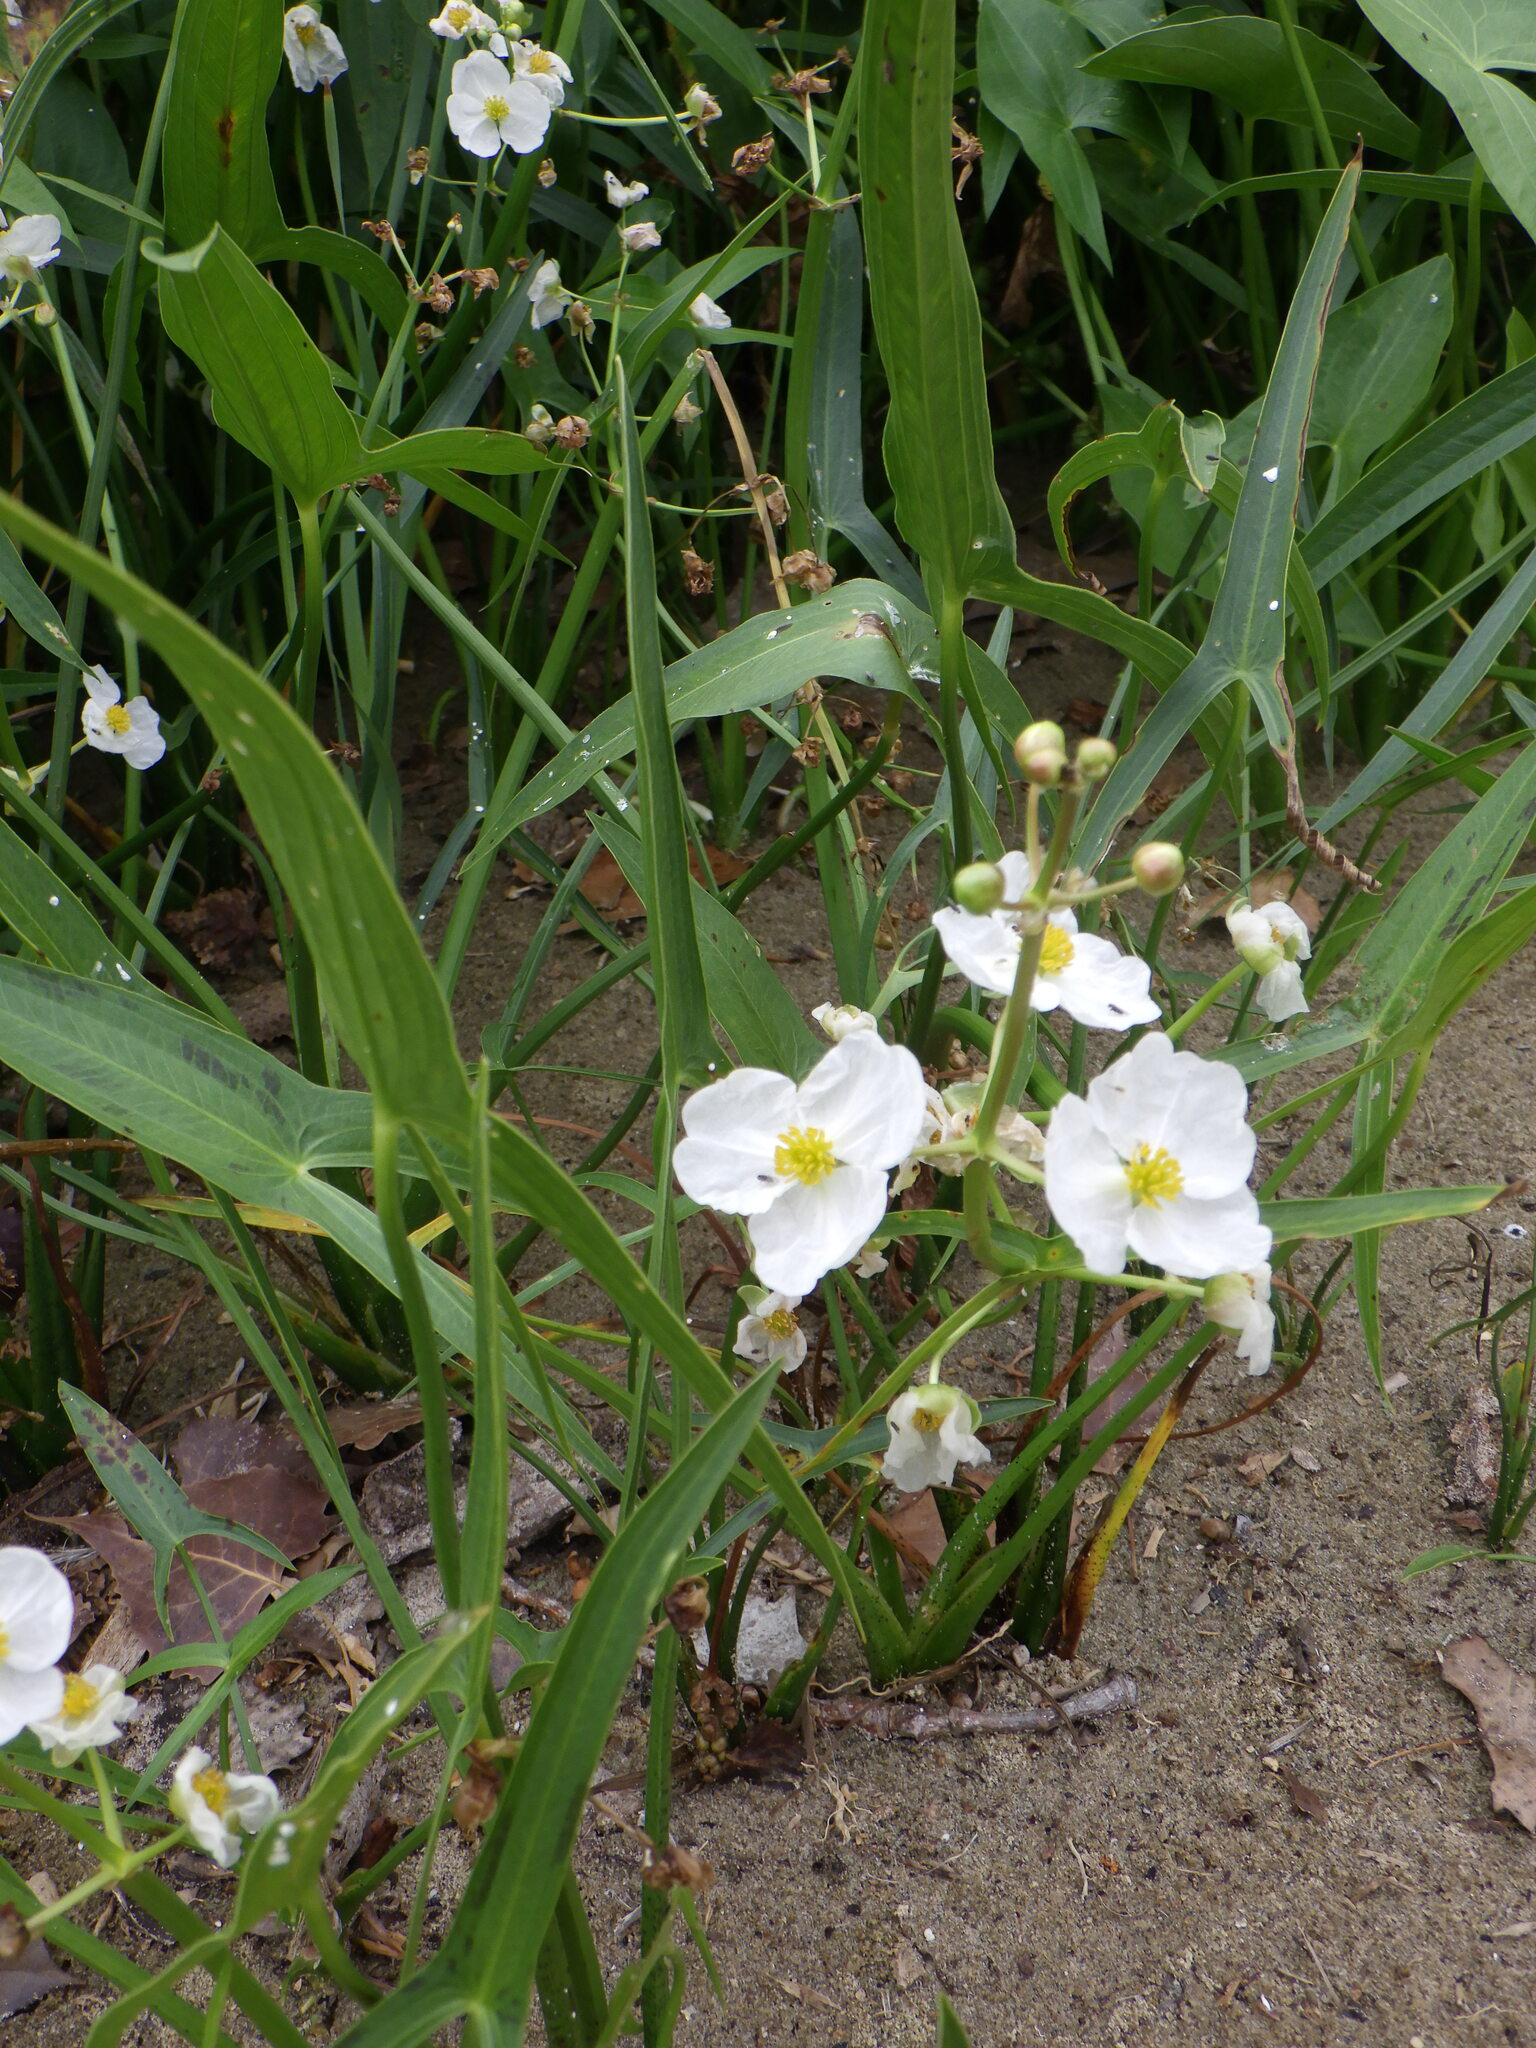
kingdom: Plantae
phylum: Tracheophyta
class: Liliopsida
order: Alismatales
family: Alismataceae
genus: Sagittaria
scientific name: Sagittaria latifolia
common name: Duck-potato
